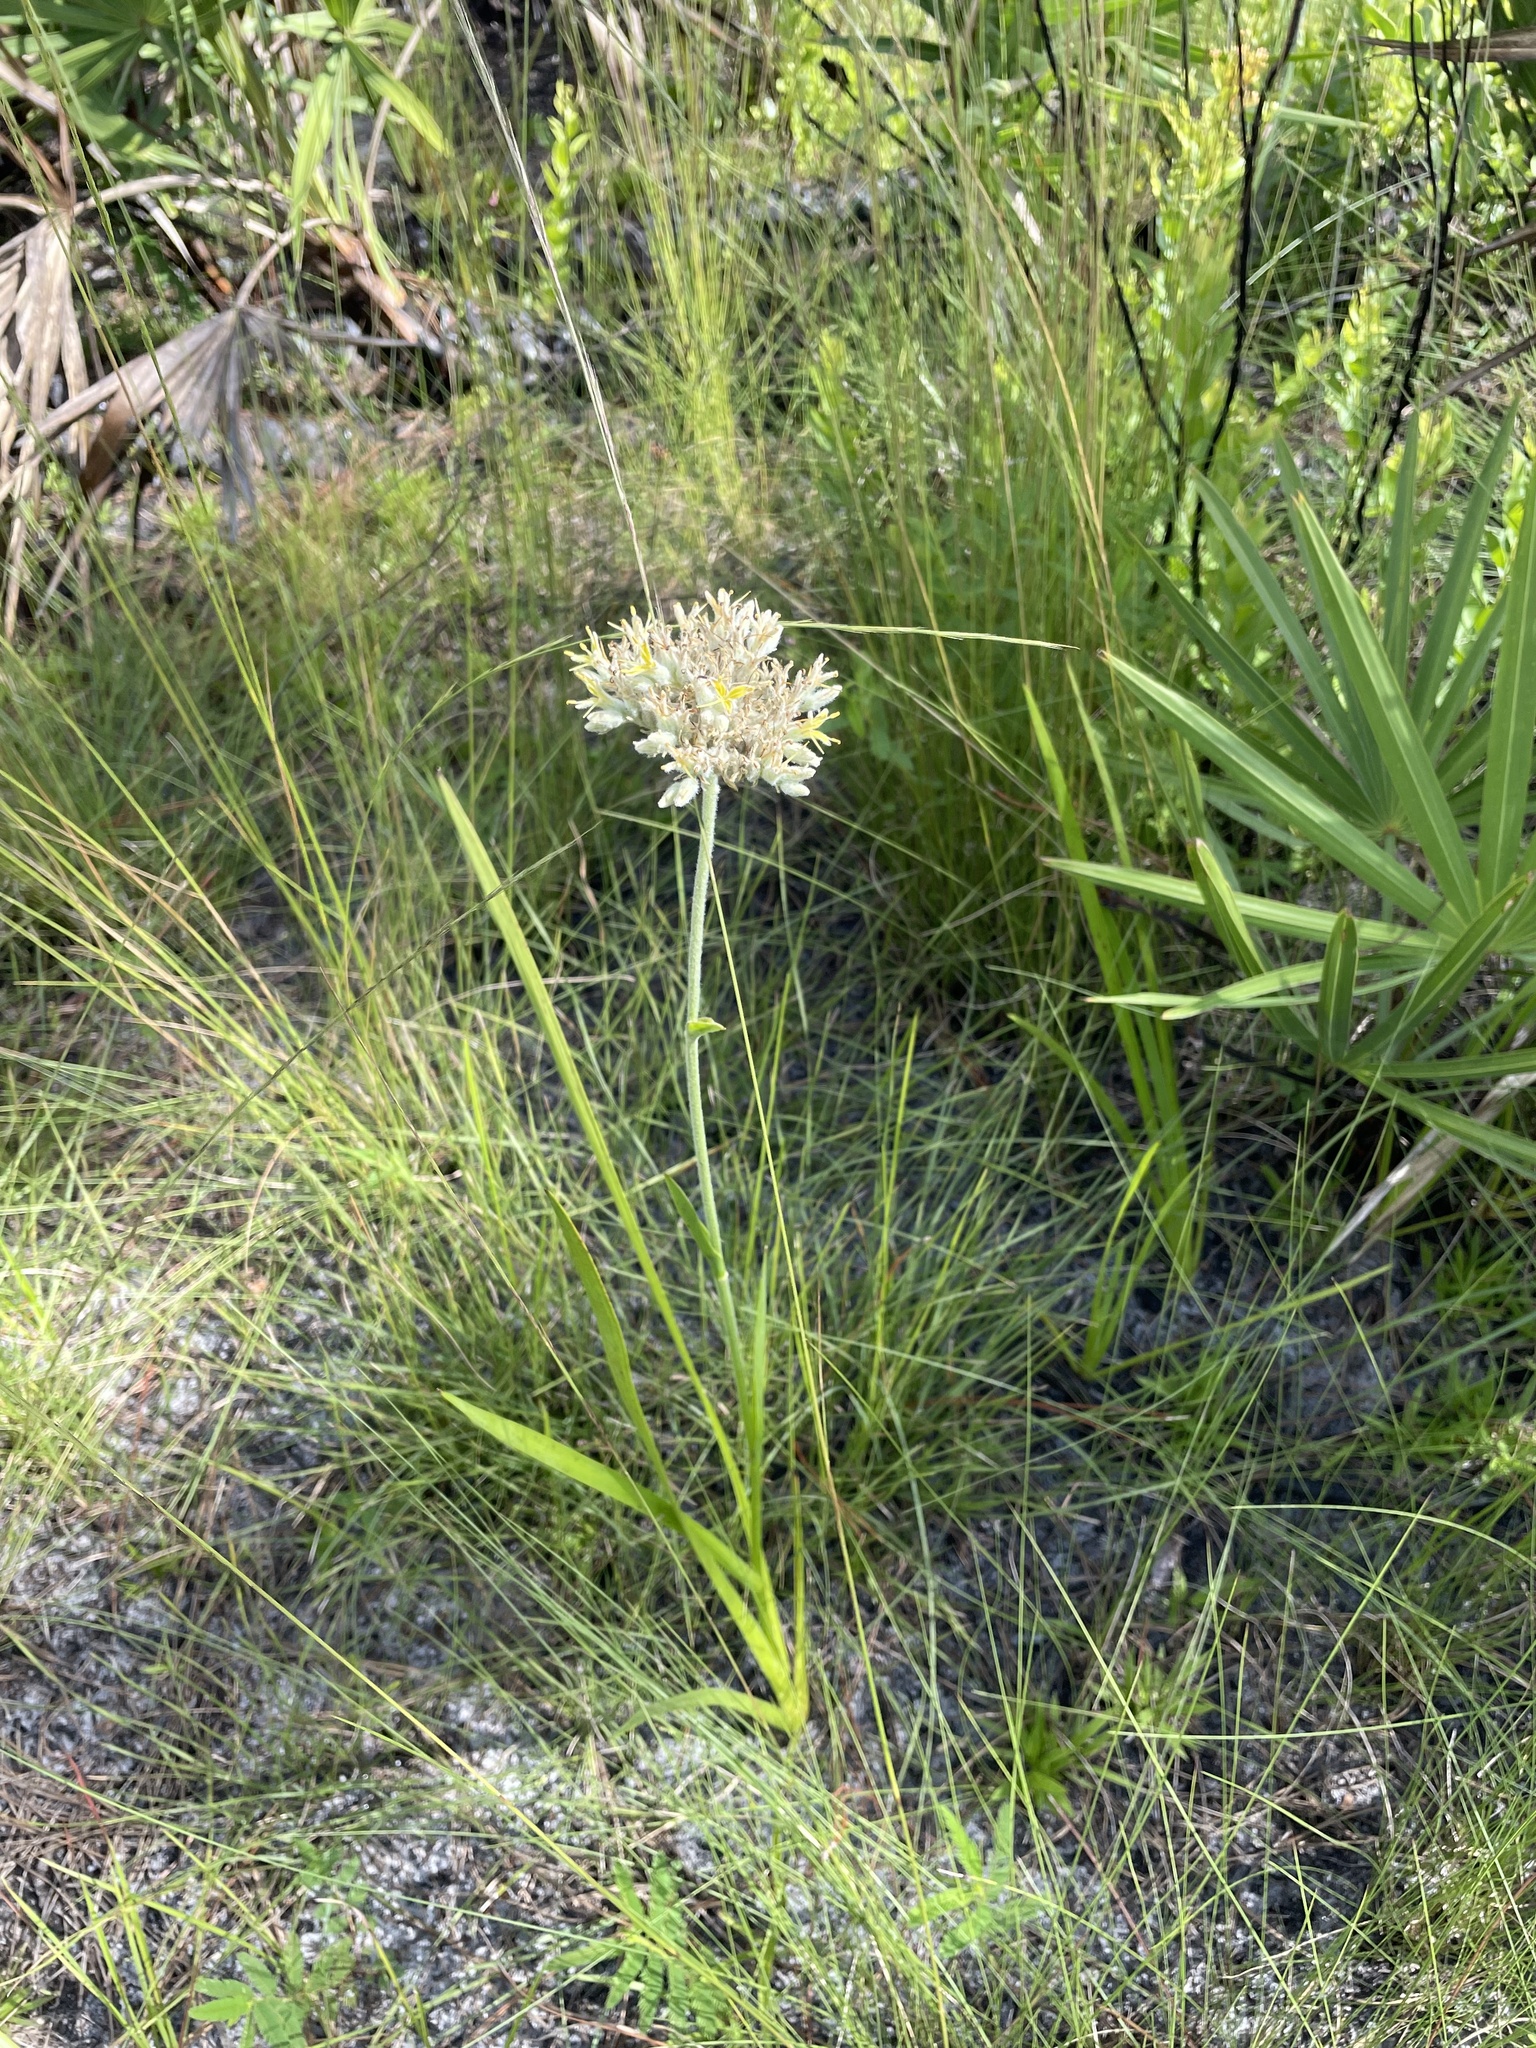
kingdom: Plantae
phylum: Tracheophyta
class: Liliopsida
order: Commelinales
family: Haemodoraceae
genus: Lachnanthes
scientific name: Lachnanthes caroliana
